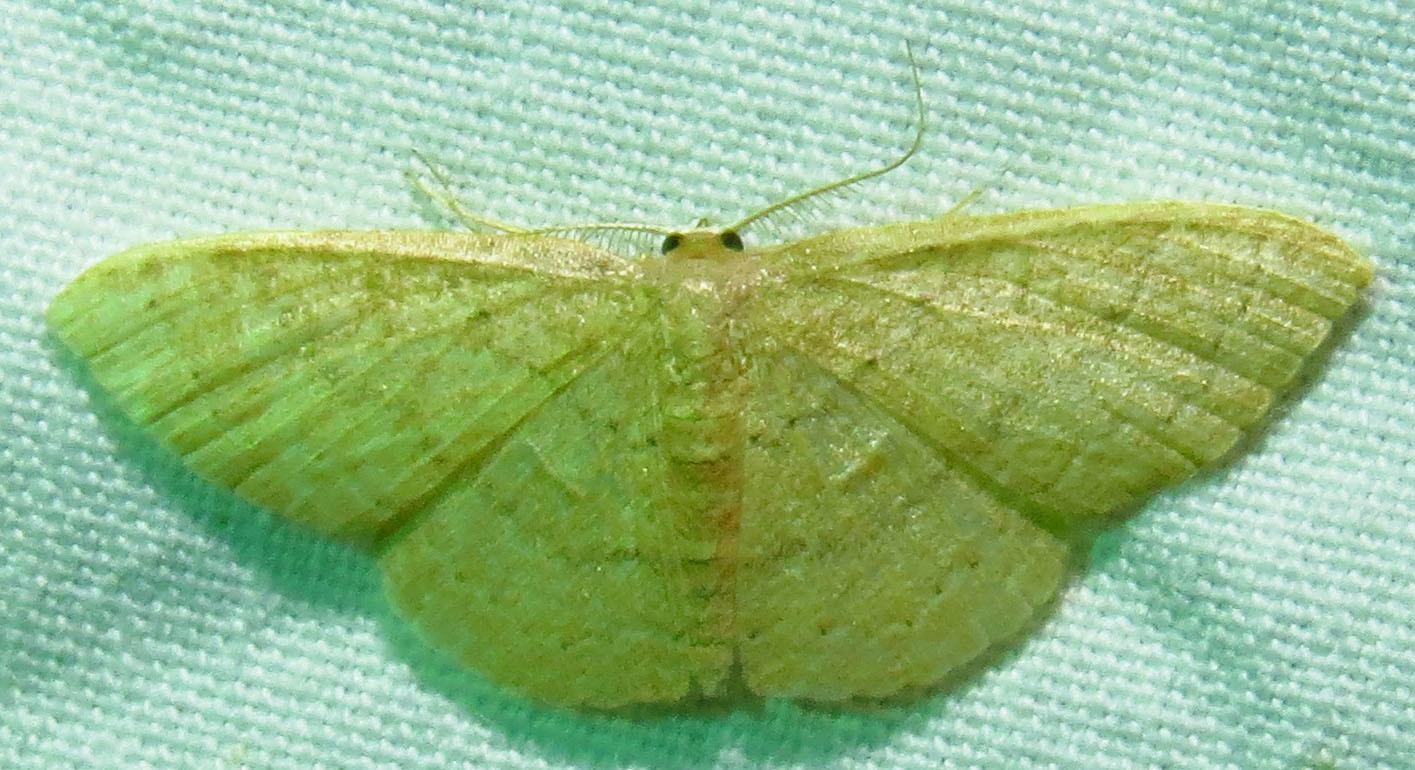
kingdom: Animalia
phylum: Arthropoda
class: Insecta
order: Lepidoptera
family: Geometridae
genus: Pleuroprucha
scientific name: Pleuroprucha insulsaria
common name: Common tan wave
